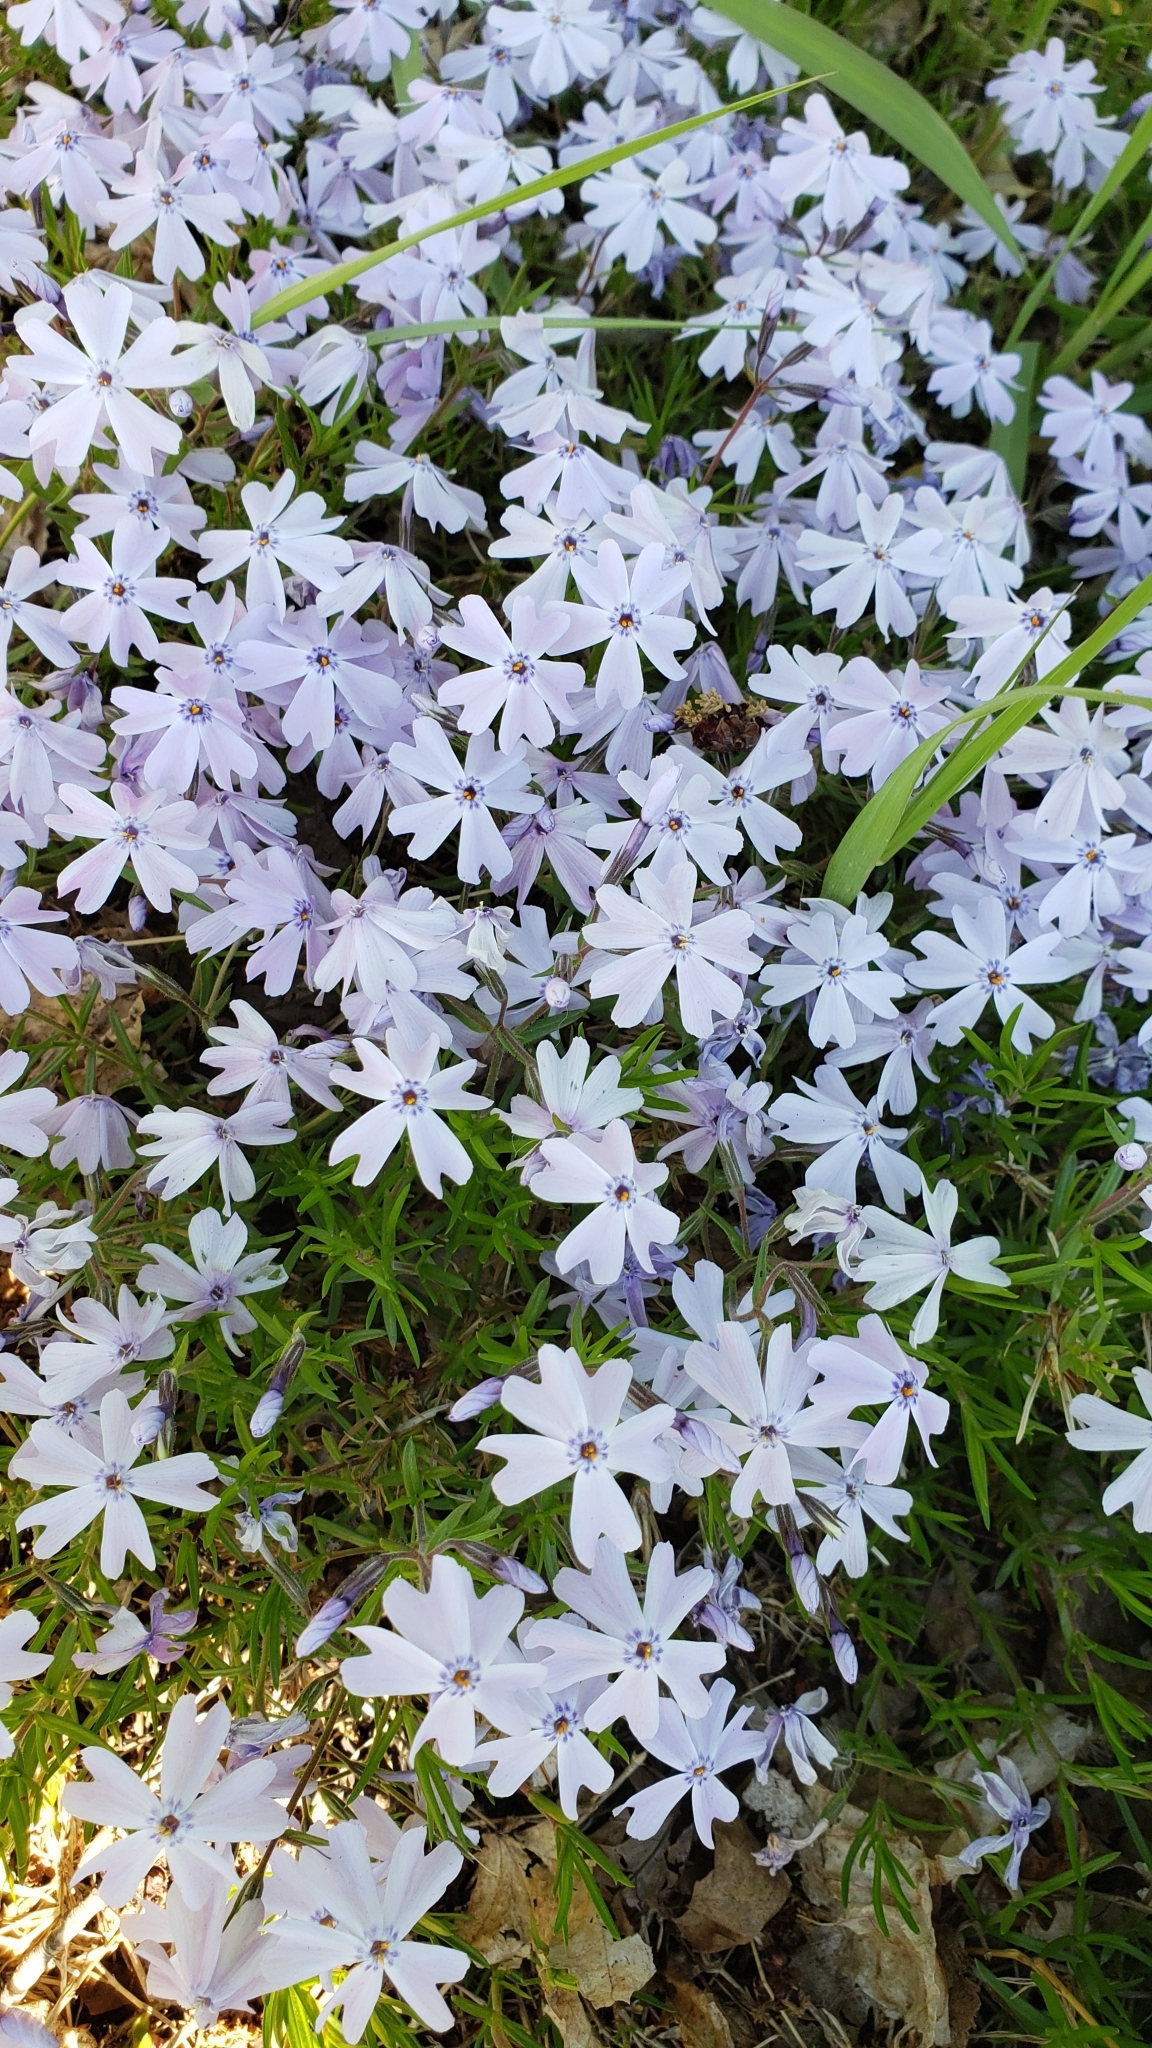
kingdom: Plantae
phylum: Tracheophyta
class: Magnoliopsida
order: Ericales
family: Polemoniaceae
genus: Phlox
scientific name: Phlox subulata
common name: Moss phlox
